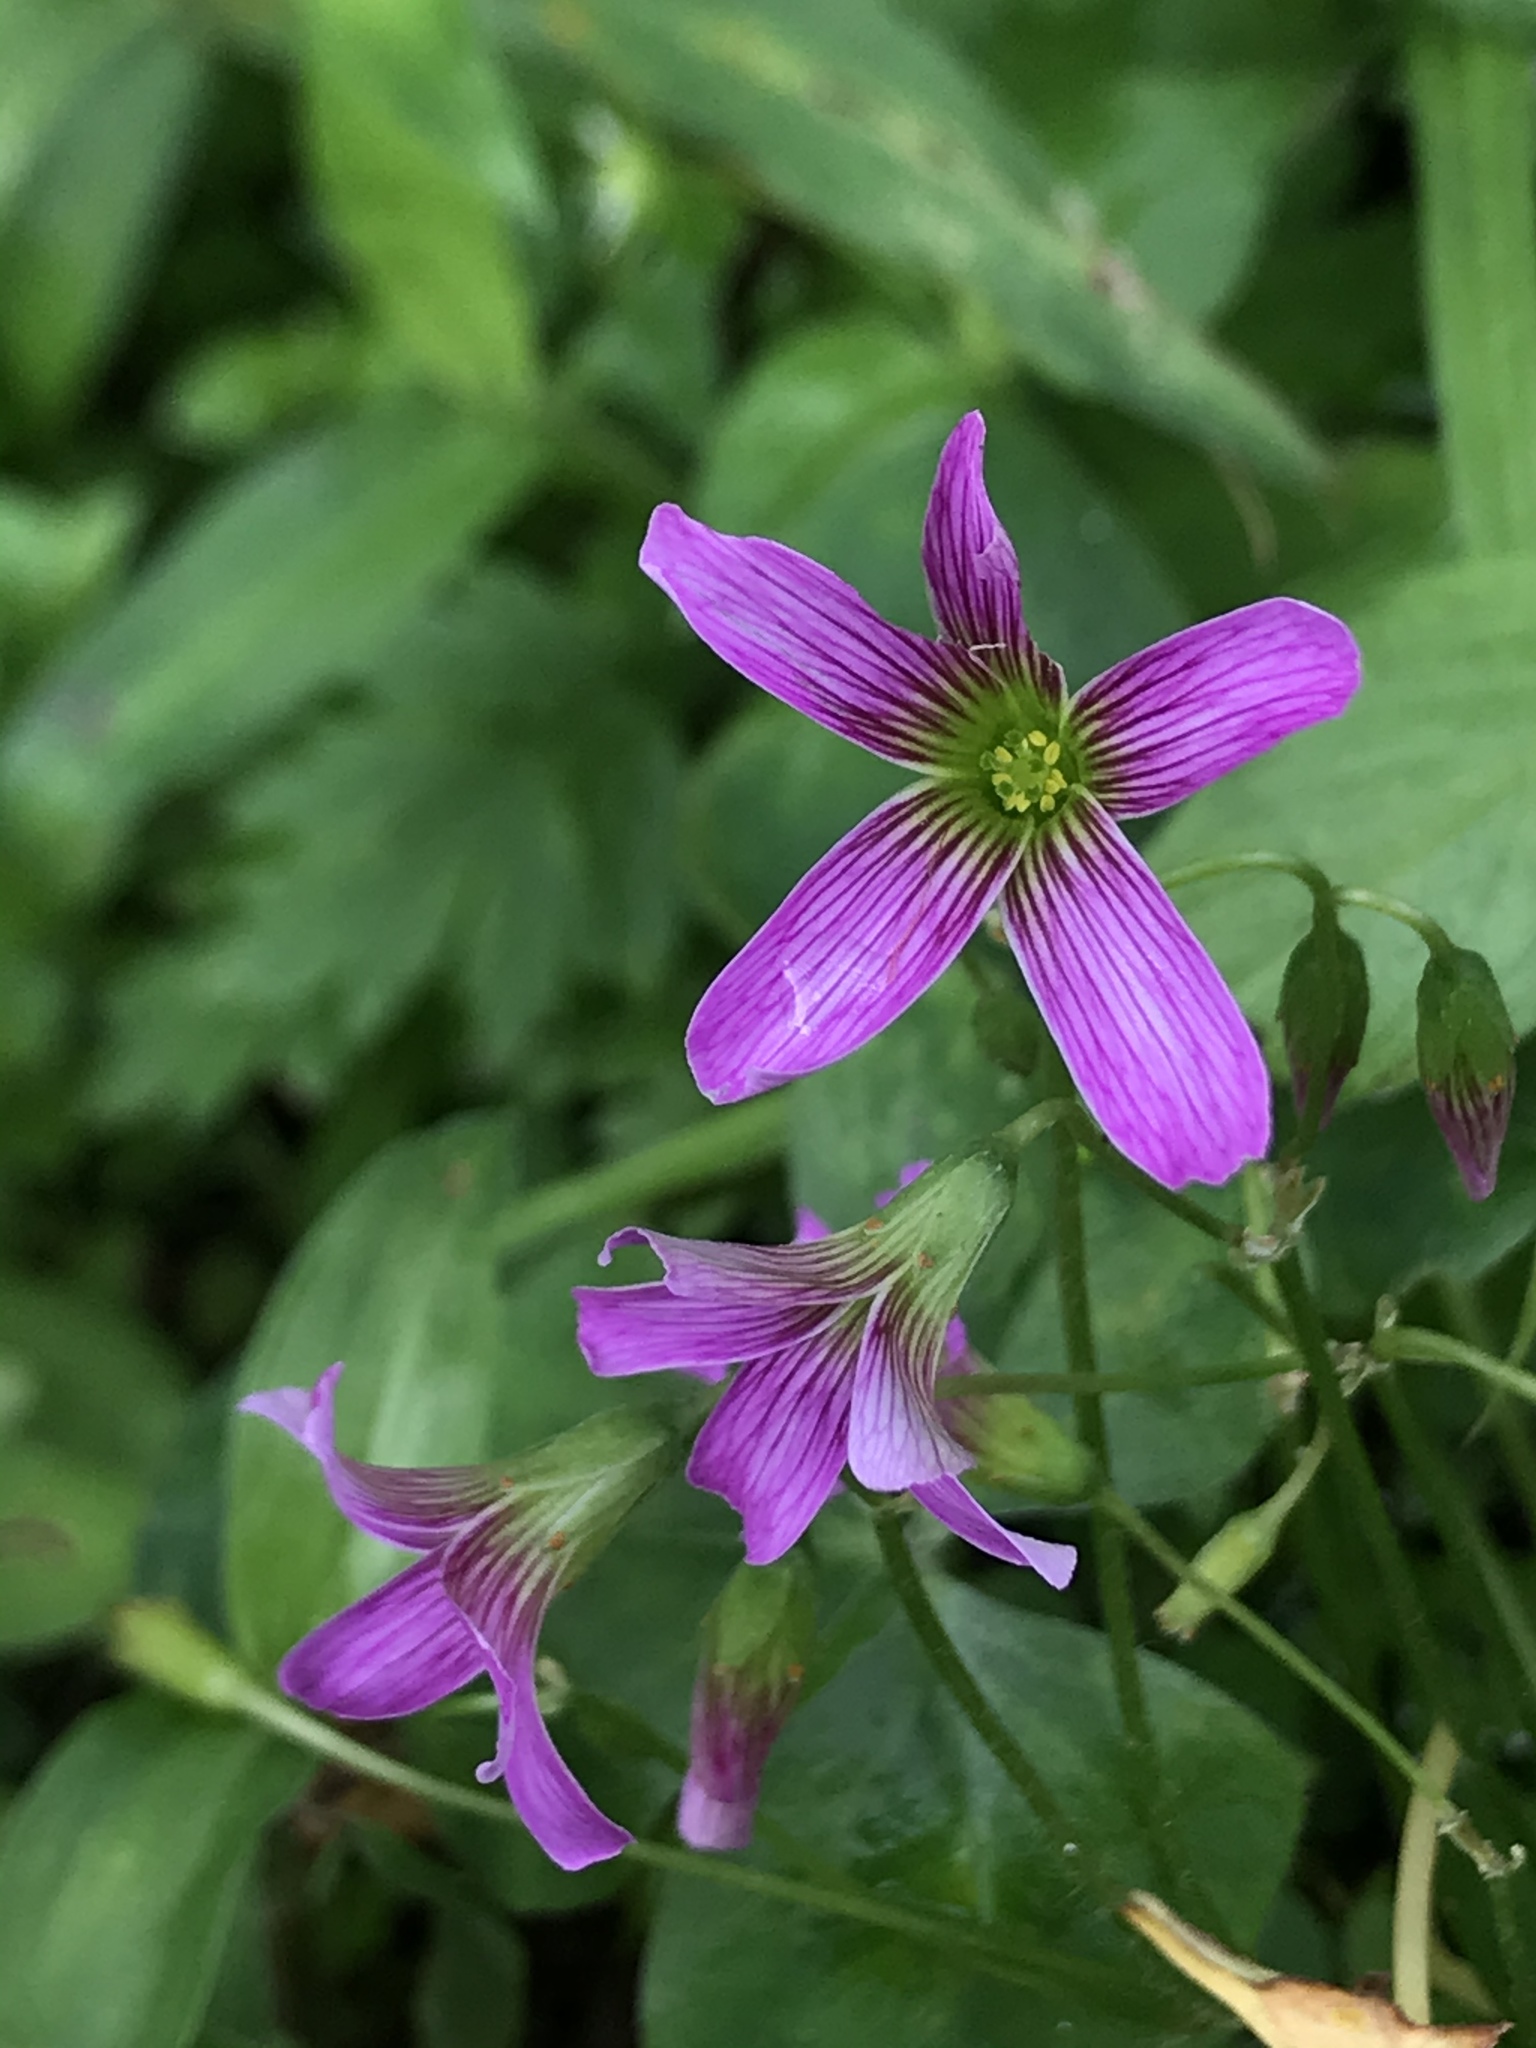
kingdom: Plantae
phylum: Tracheophyta
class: Magnoliopsida
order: Oxalidales
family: Oxalidaceae
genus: Oxalis
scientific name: Oxalis debilis
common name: Large-flowered pink-sorrel
